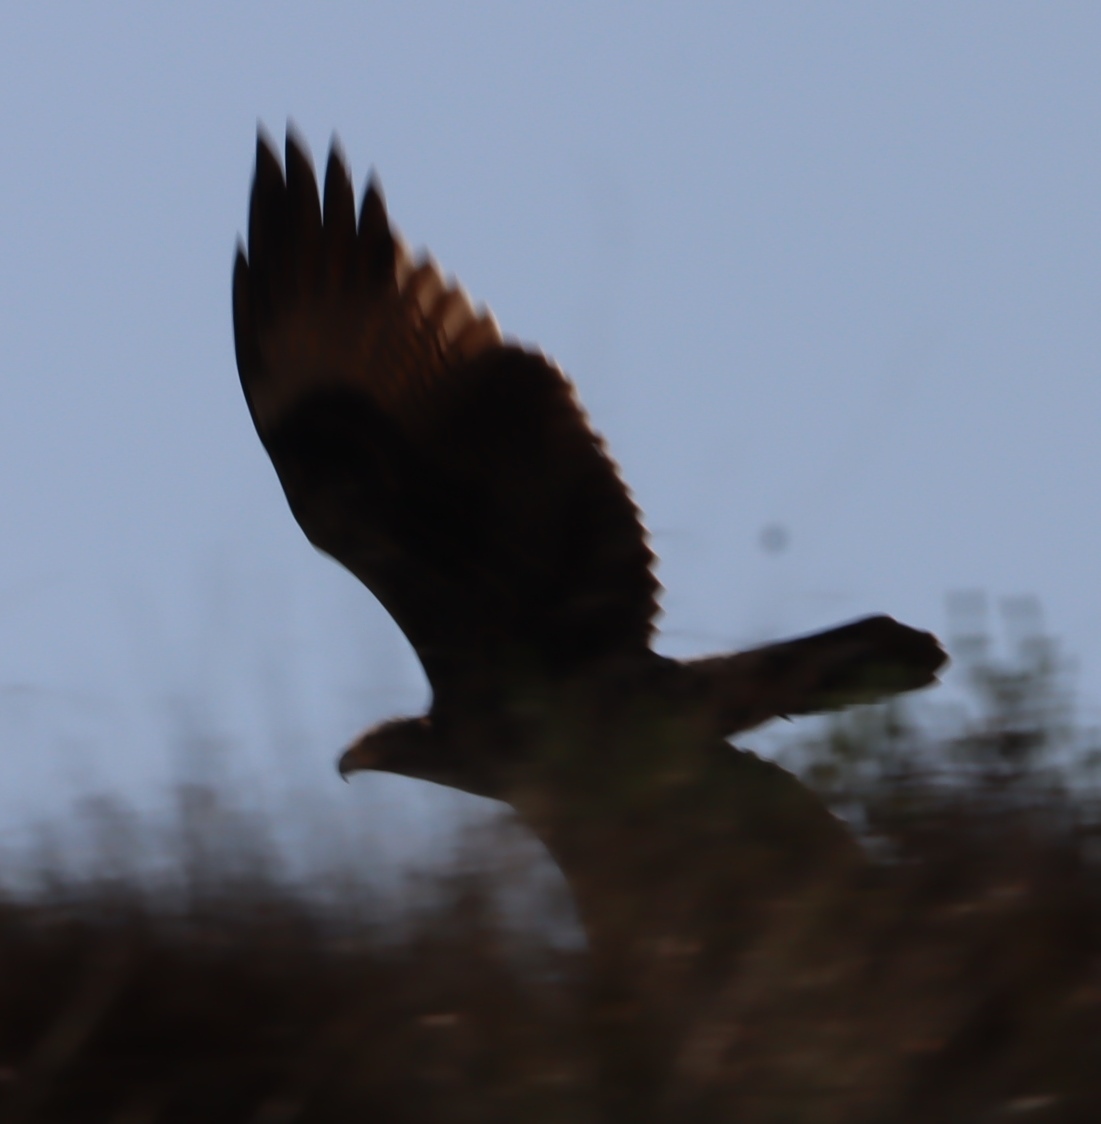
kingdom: Animalia
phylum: Chordata
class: Aves
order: Accipitriformes
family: Accipitridae
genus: Aquila
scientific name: Aquila verreauxii
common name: Verreaux's eagle
